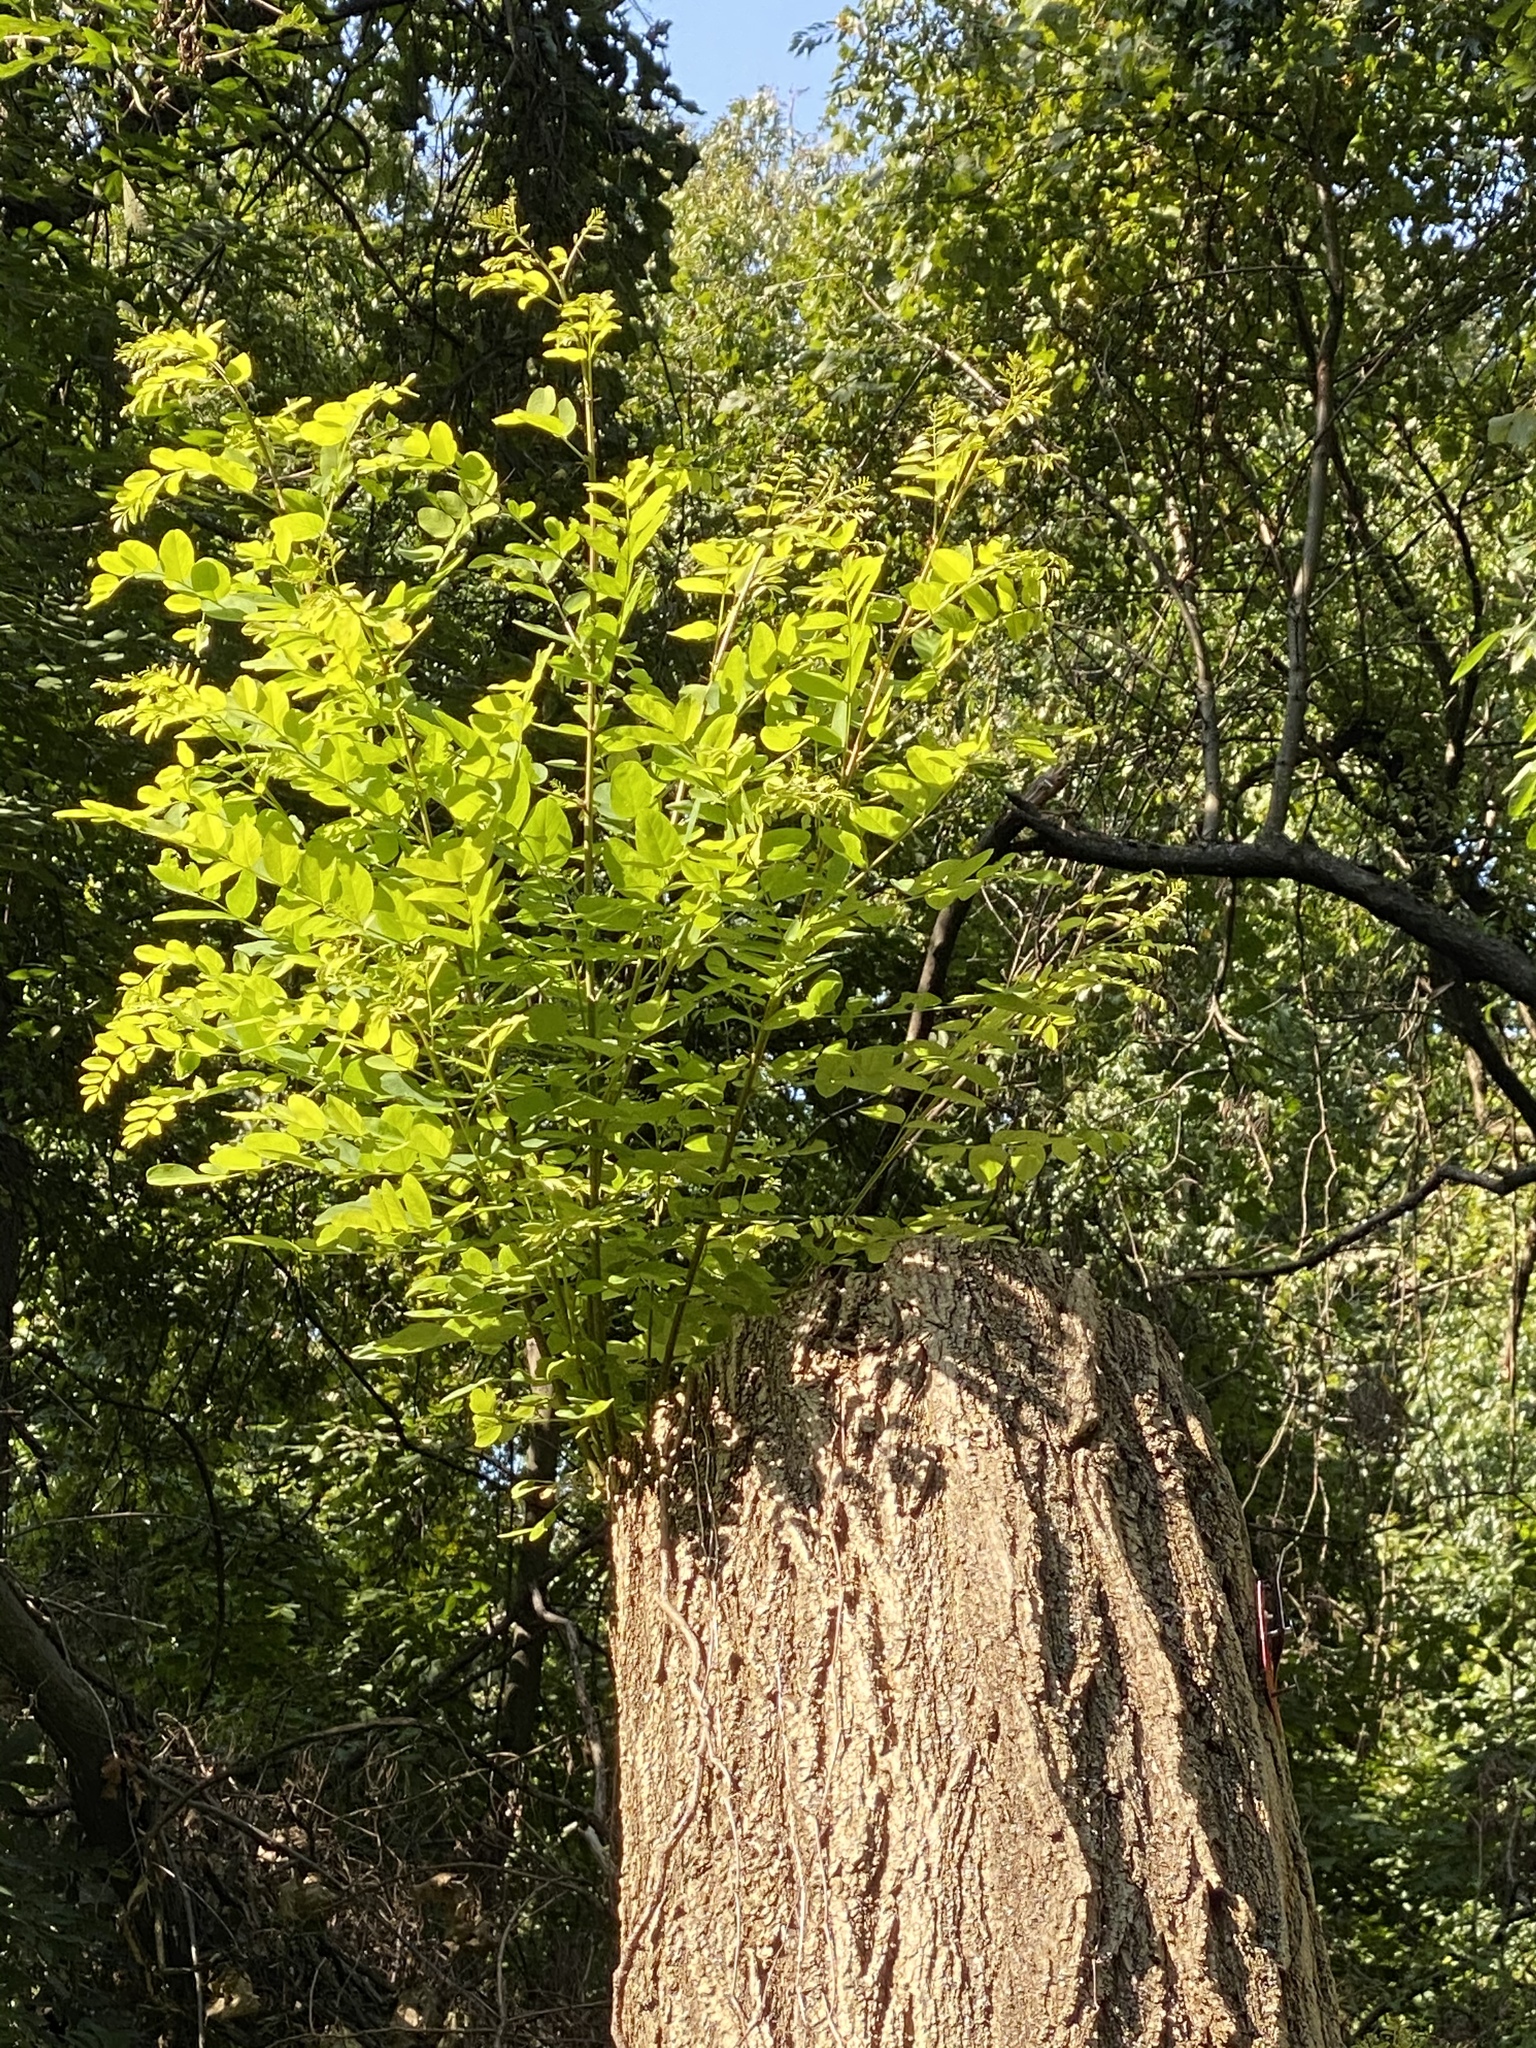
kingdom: Plantae
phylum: Tracheophyta
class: Magnoliopsida
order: Fabales
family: Fabaceae
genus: Robinia
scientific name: Robinia pseudoacacia
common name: Black locust
